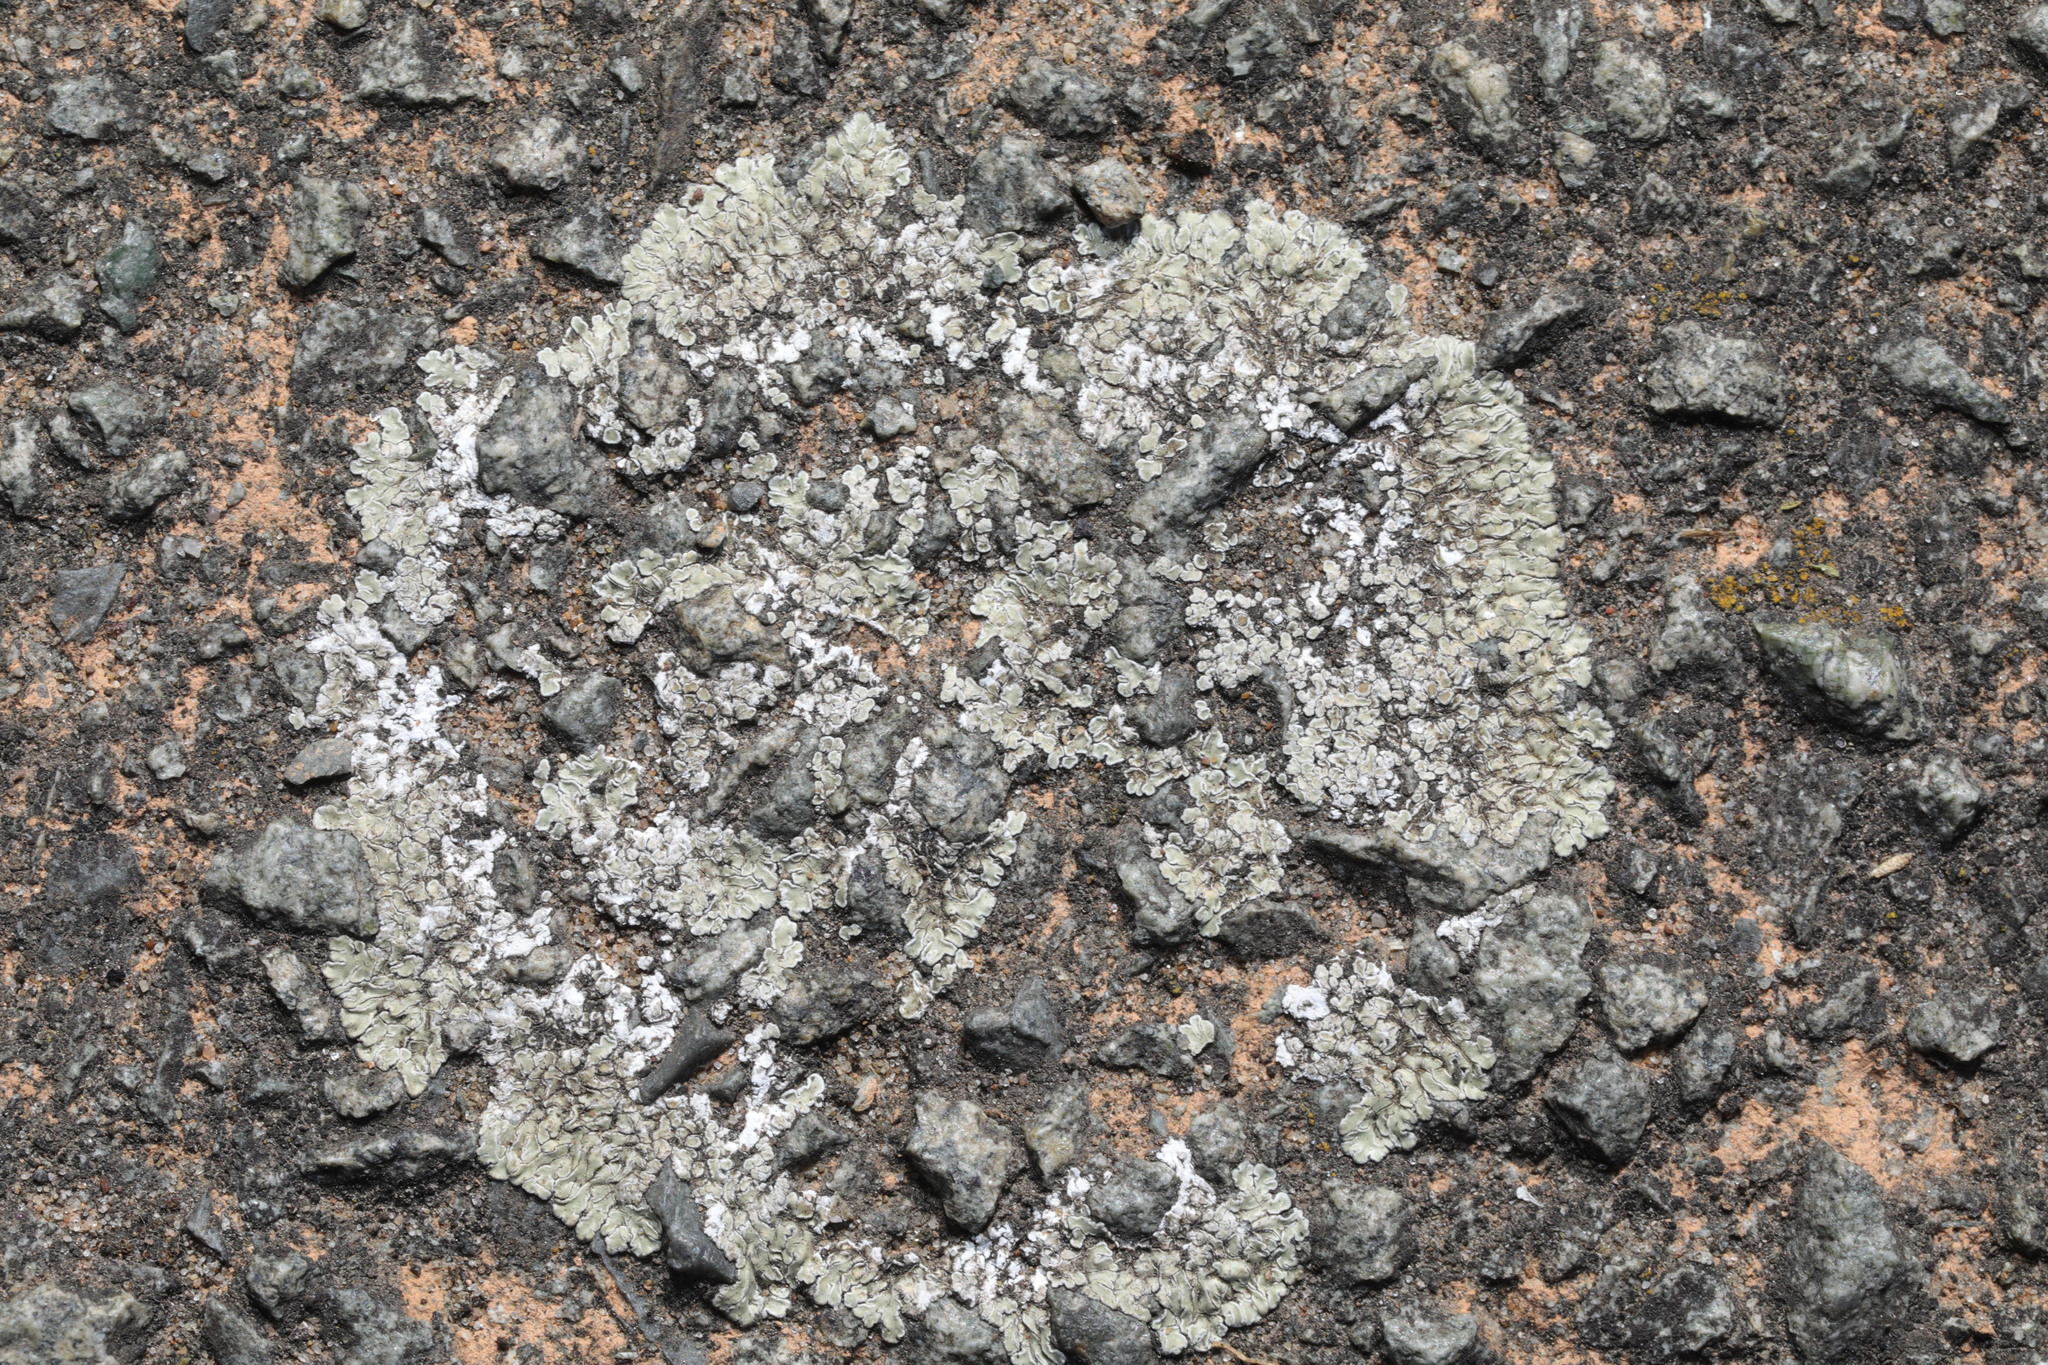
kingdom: Fungi
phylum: Ascomycota
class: Lecanoromycetes
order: Lecanorales
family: Lecanoraceae
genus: Protoparmeliopsis
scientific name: Protoparmeliopsis muralis
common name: Stonewall rim lichen
